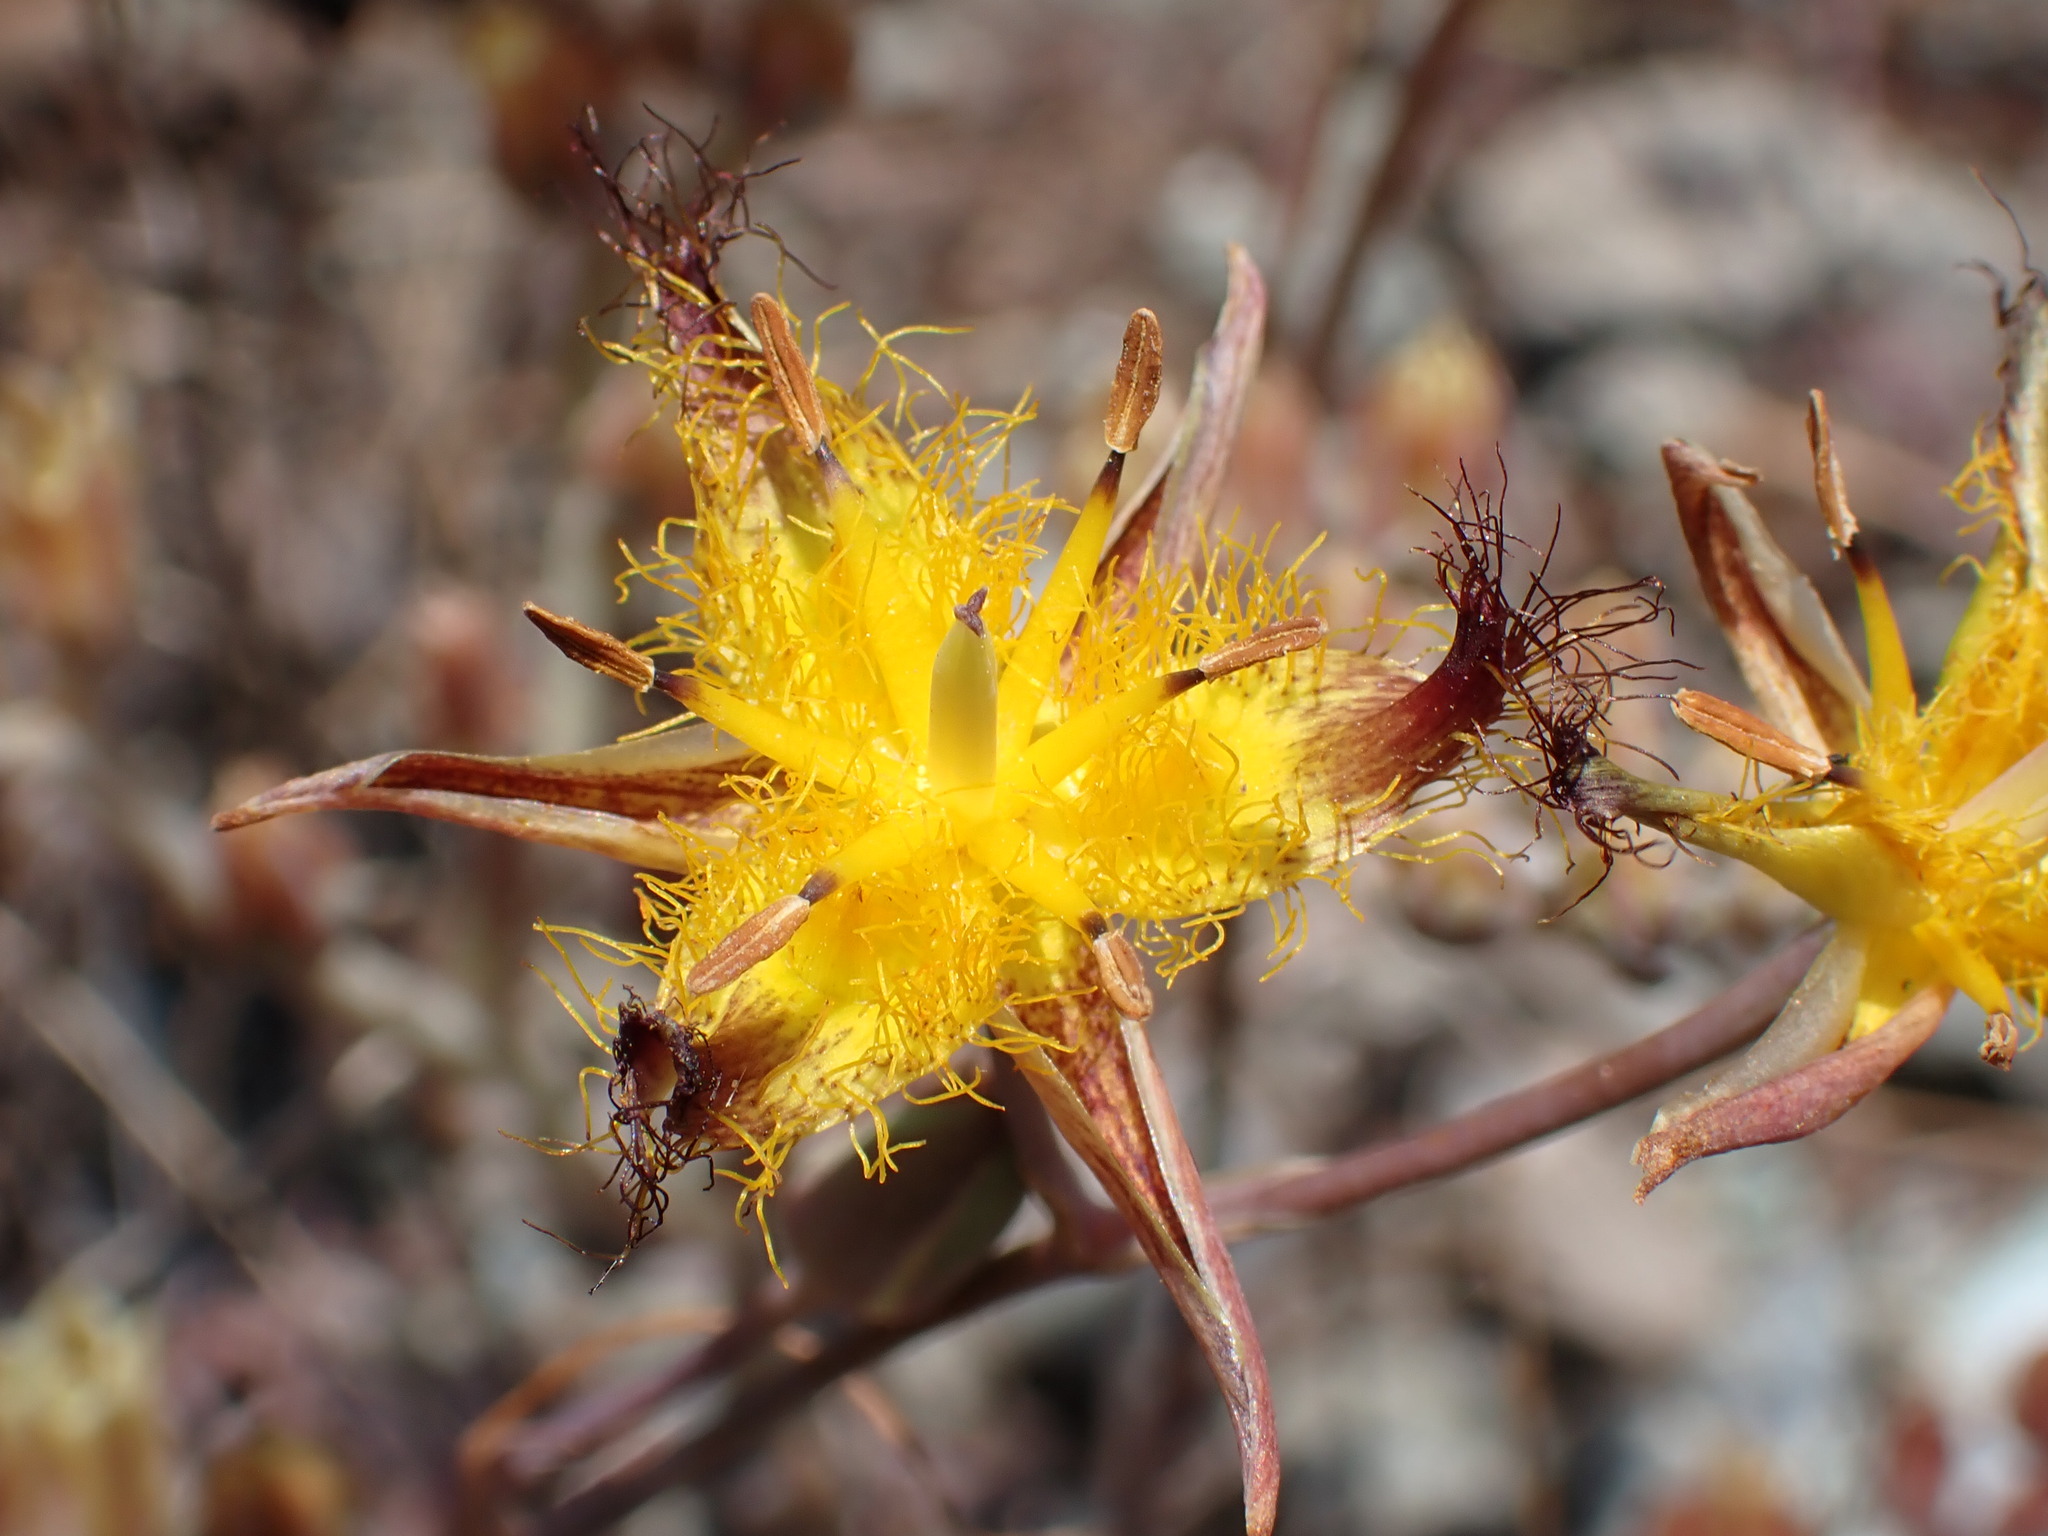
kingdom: Plantae
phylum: Tracheophyta
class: Liliopsida
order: Liliales
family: Liliaceae
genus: Calochortus
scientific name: Calochortus obispoensis
